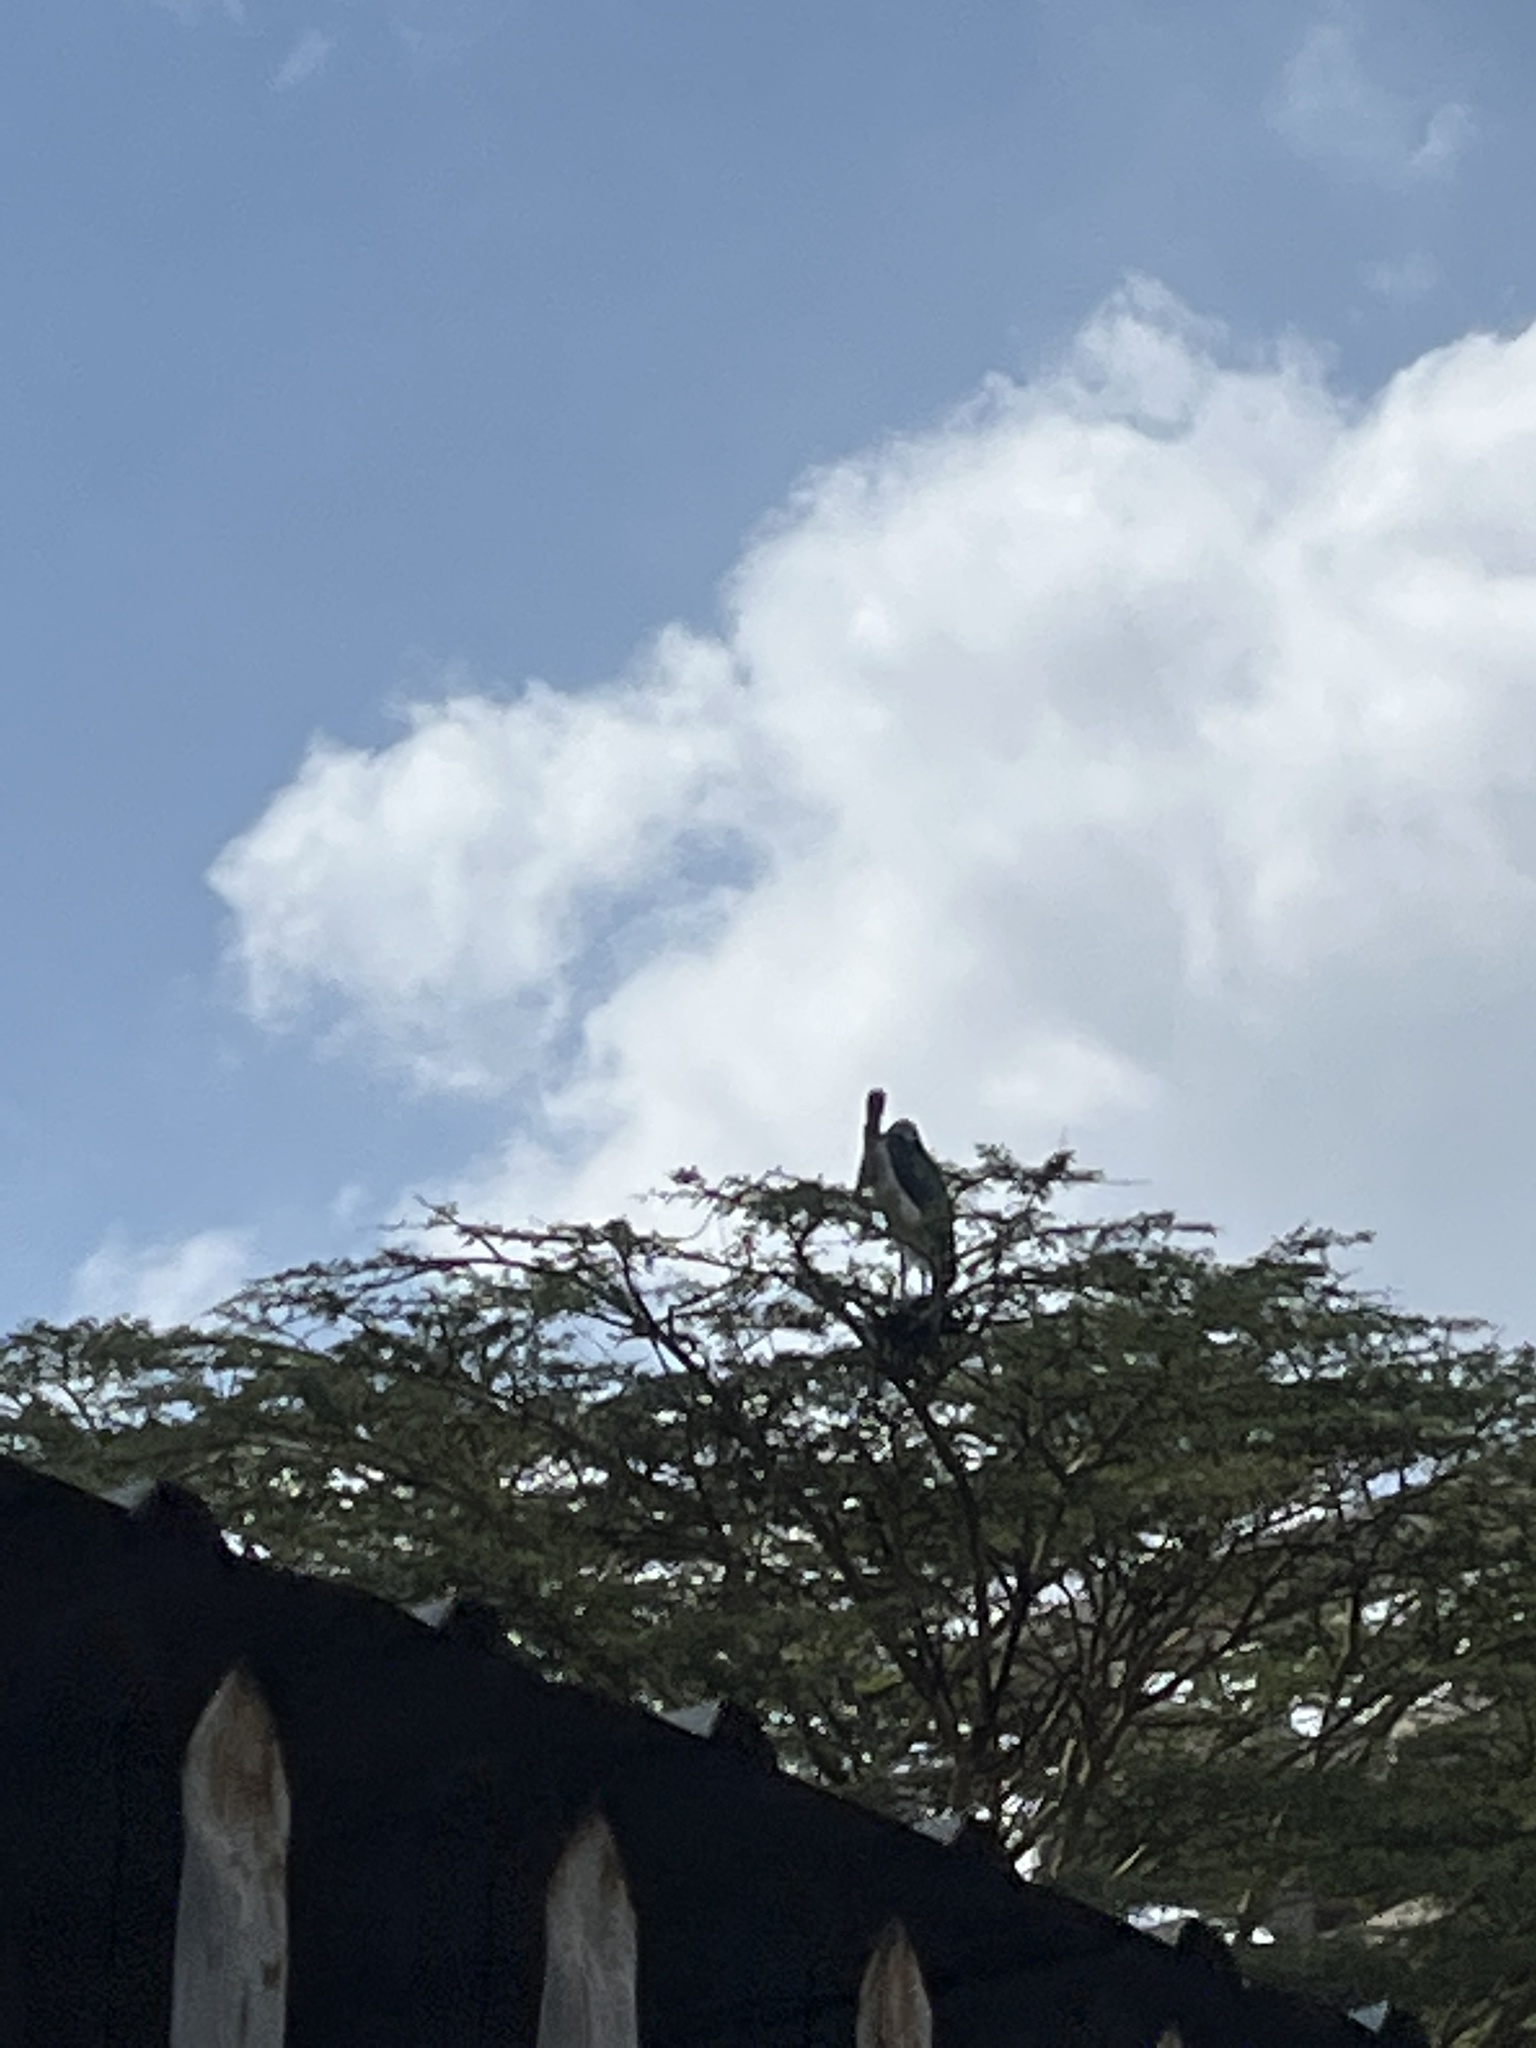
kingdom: Animalia
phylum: Chordata
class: Aves
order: Ciconiiformes
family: Ciconiidae
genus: Leptoptilos
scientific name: Leptoptilos crumenifer
